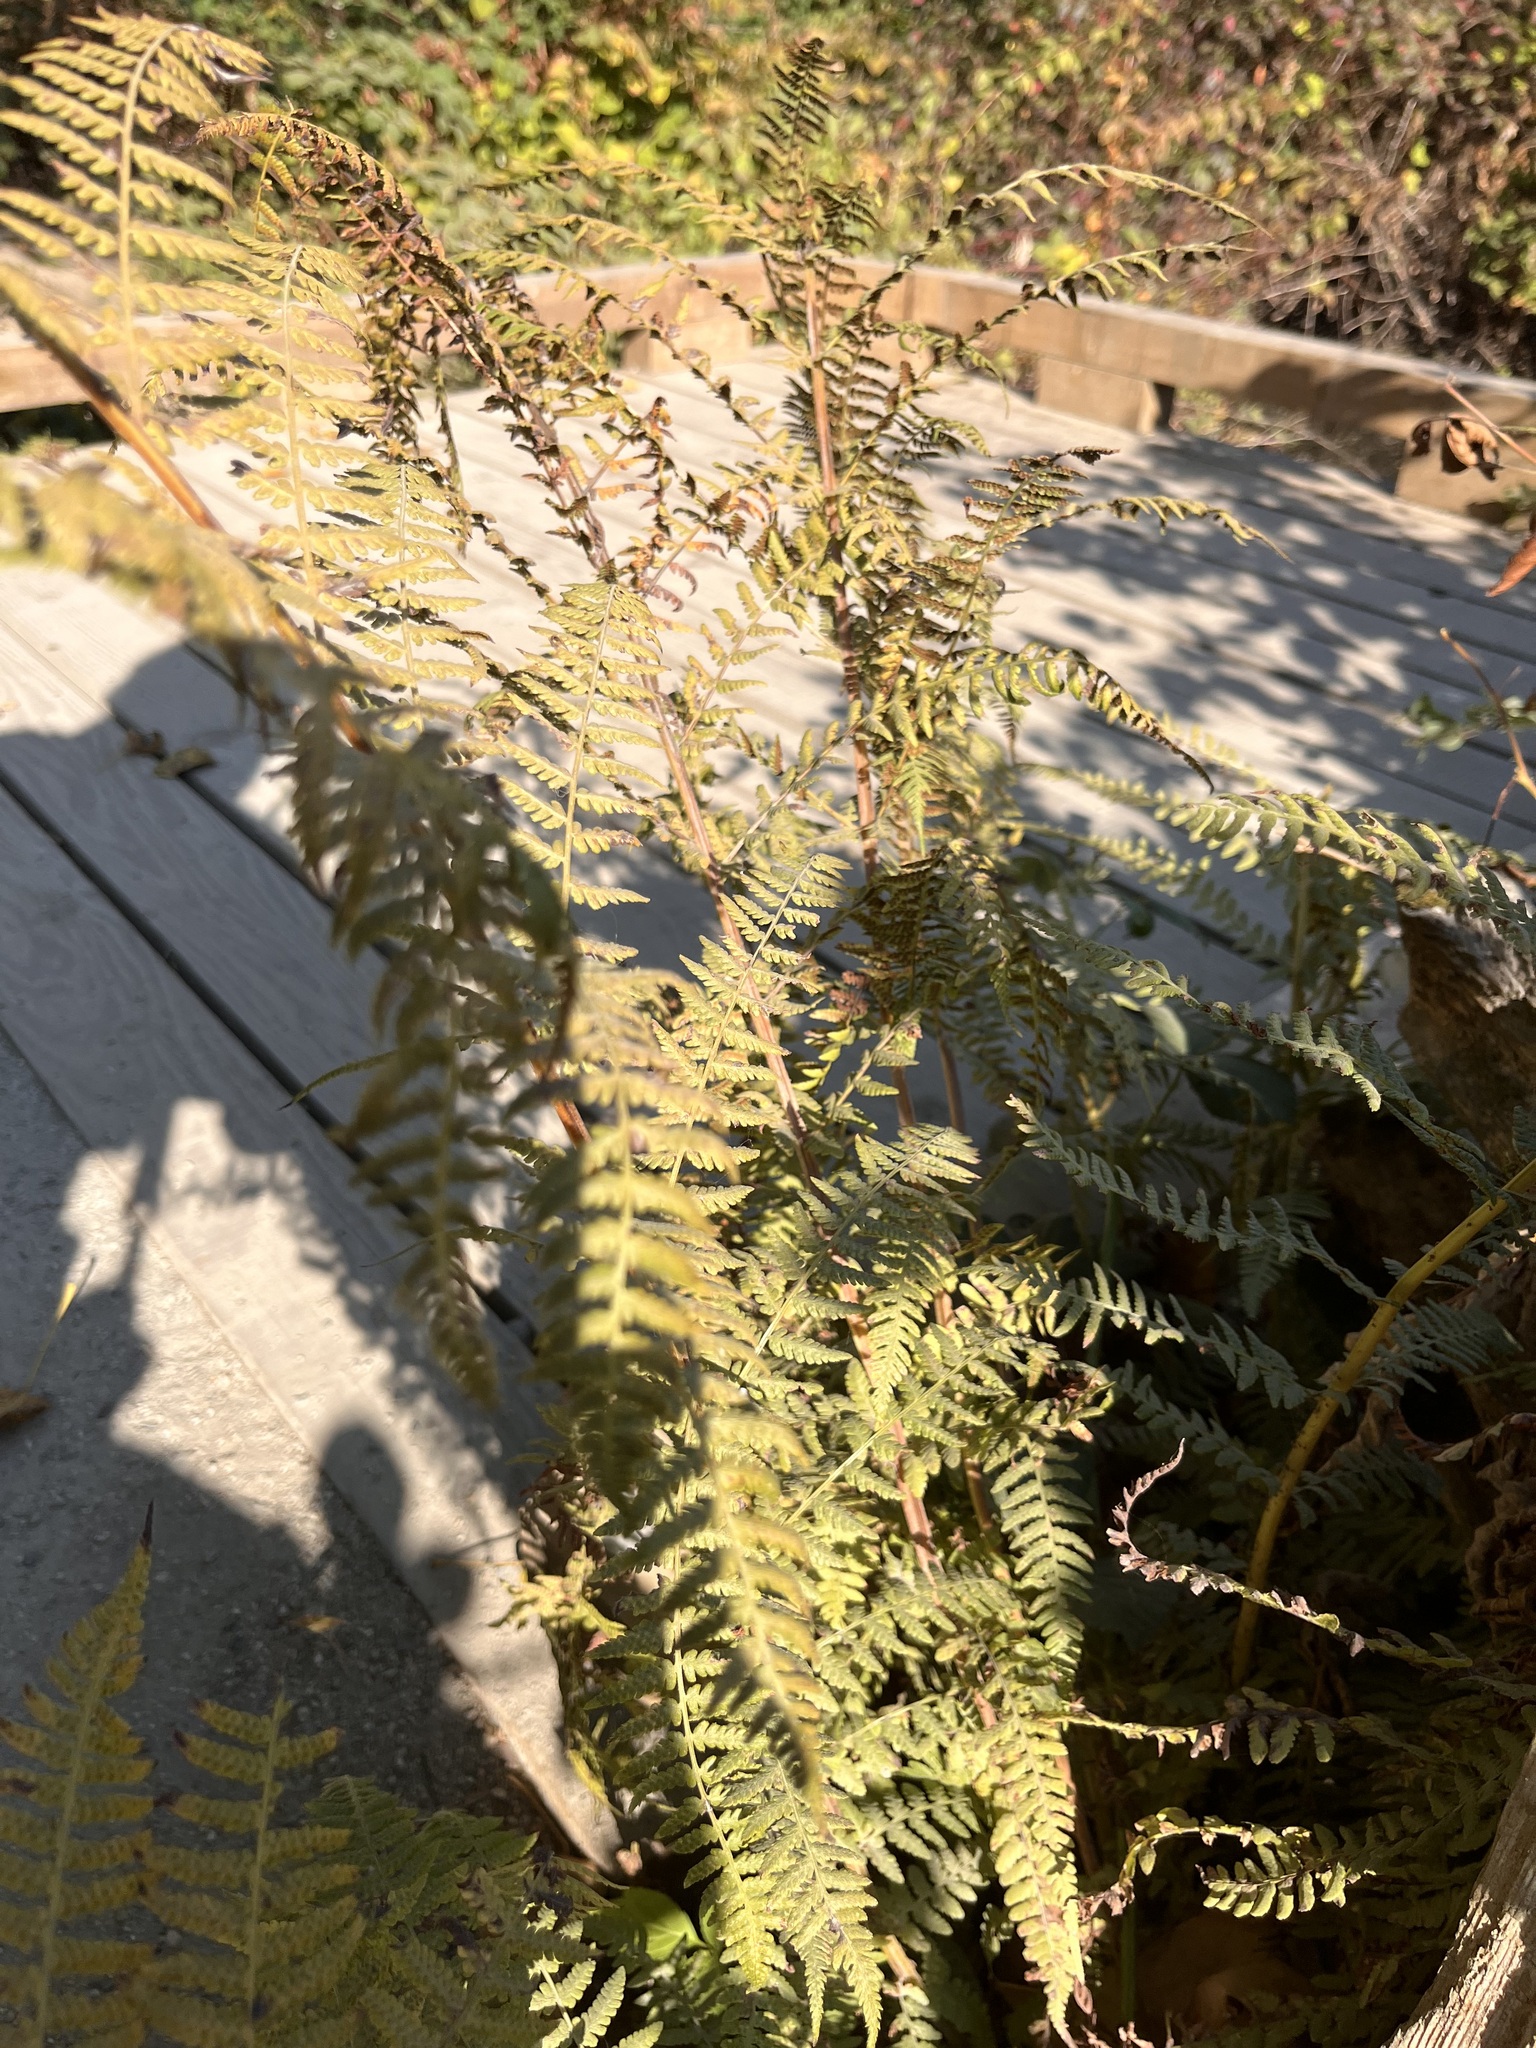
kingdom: Plantae
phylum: Tracheophyta
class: Polypodiopsida
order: Polypodiales
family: Athyriaceae
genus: Athyrium
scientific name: Athyrium filix-femina
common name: Lady fern
